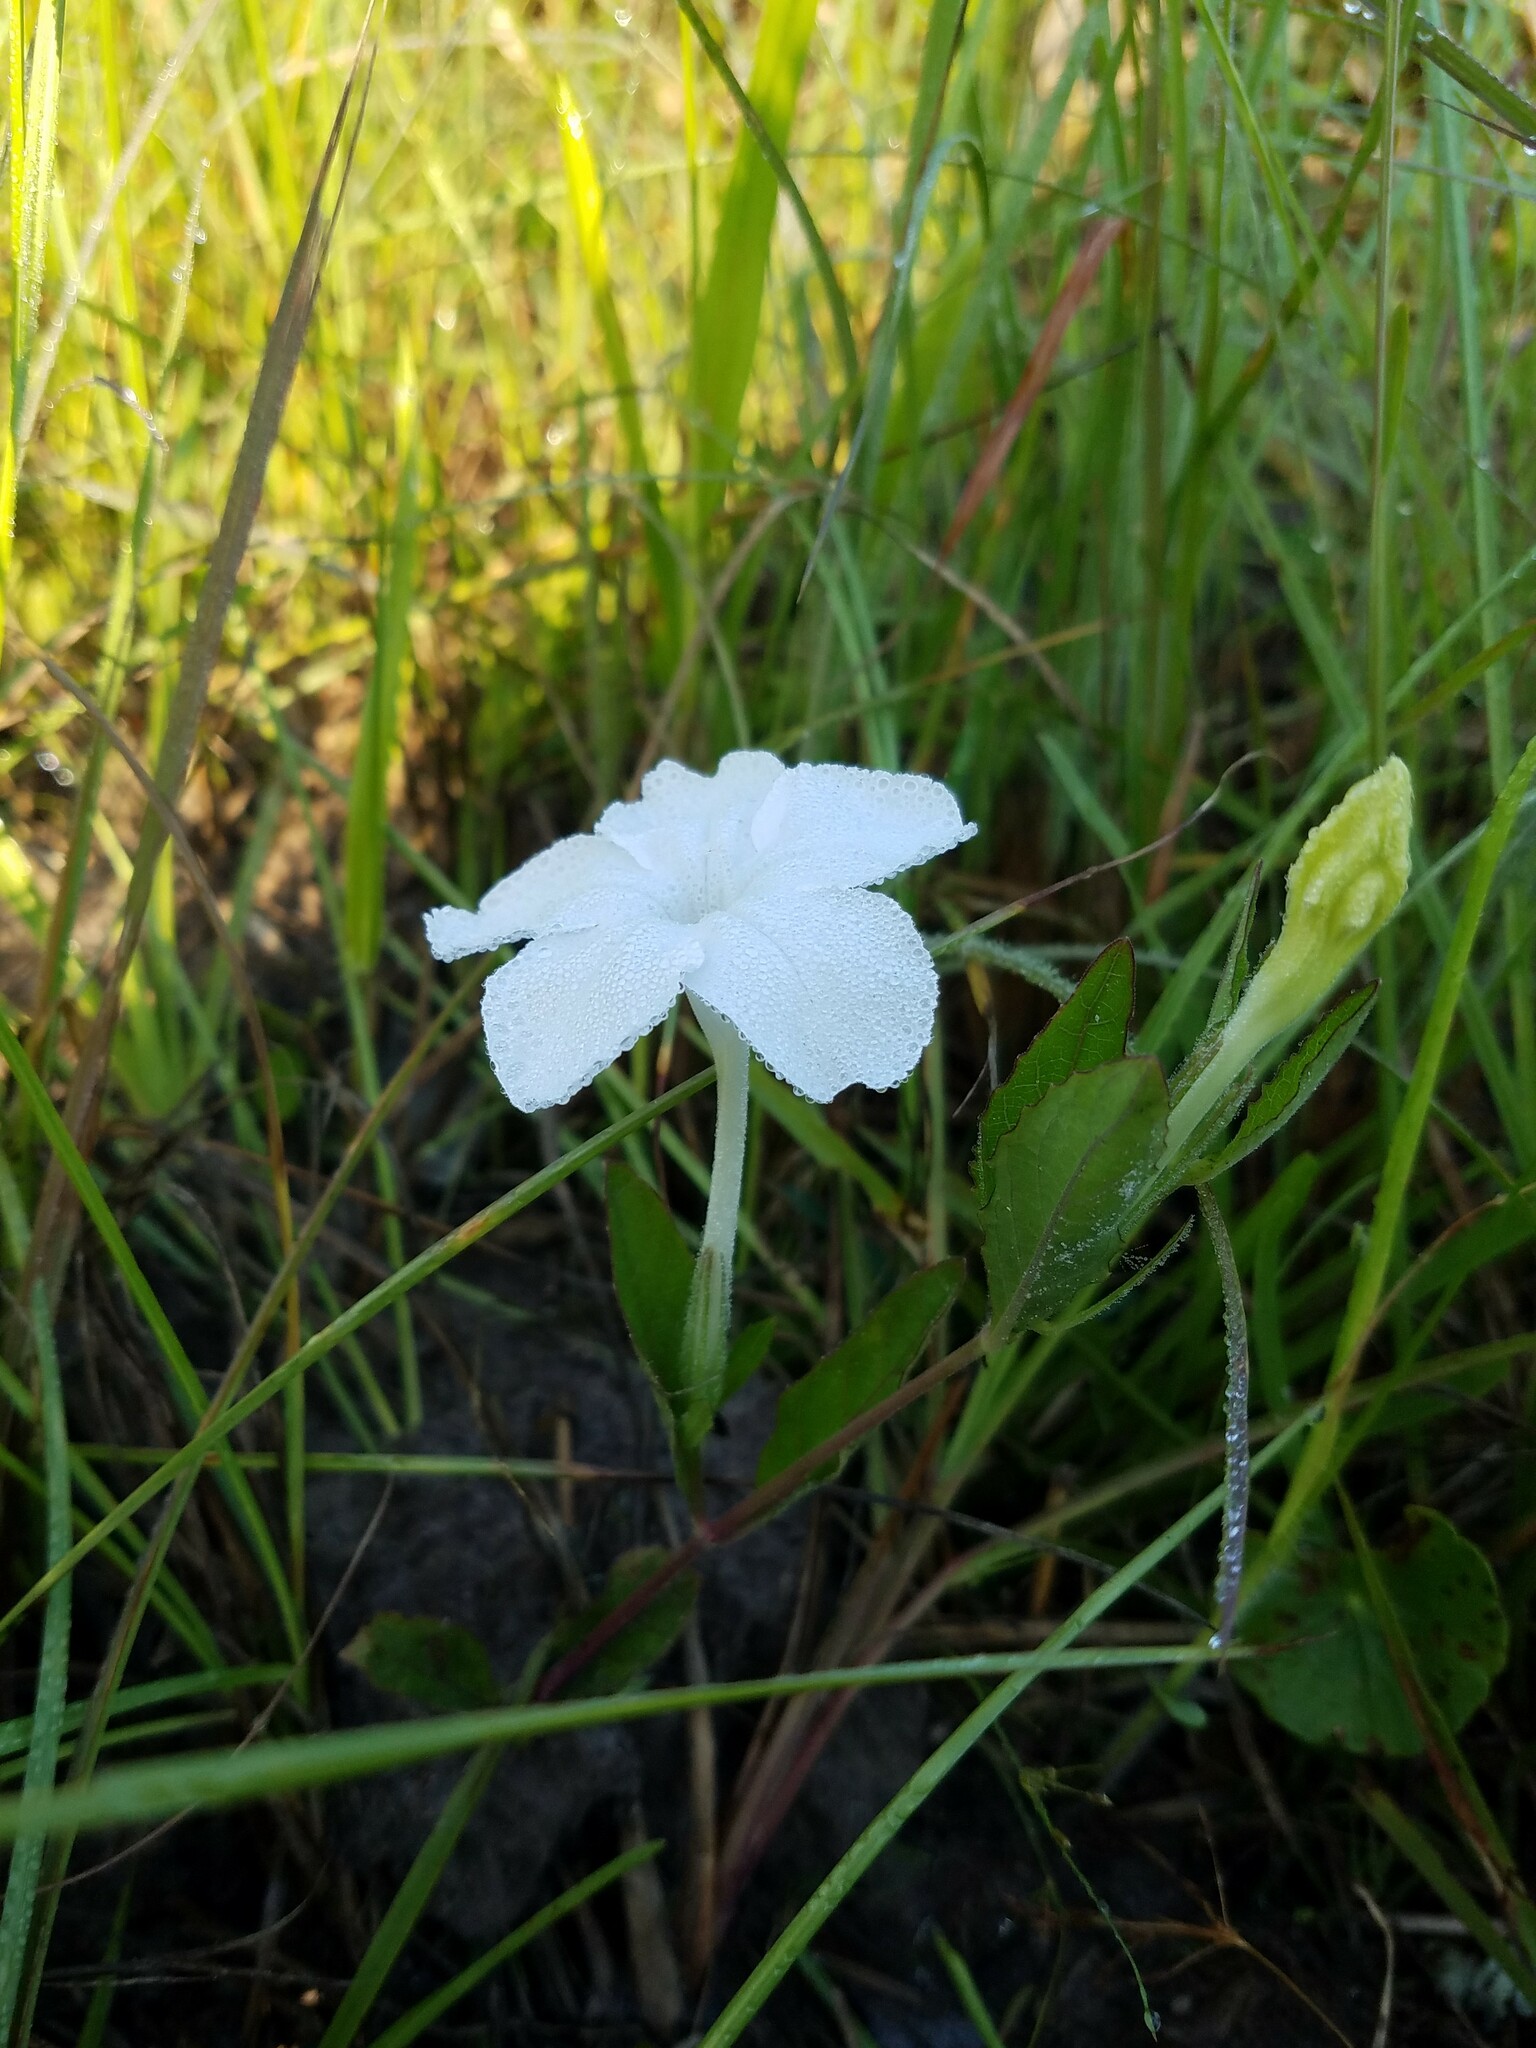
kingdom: Plantae
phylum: Tracheophyta
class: Magnoliopsida
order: Lamiales
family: Acanthaceae
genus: Ruellia
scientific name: Ruellia noctiflora
